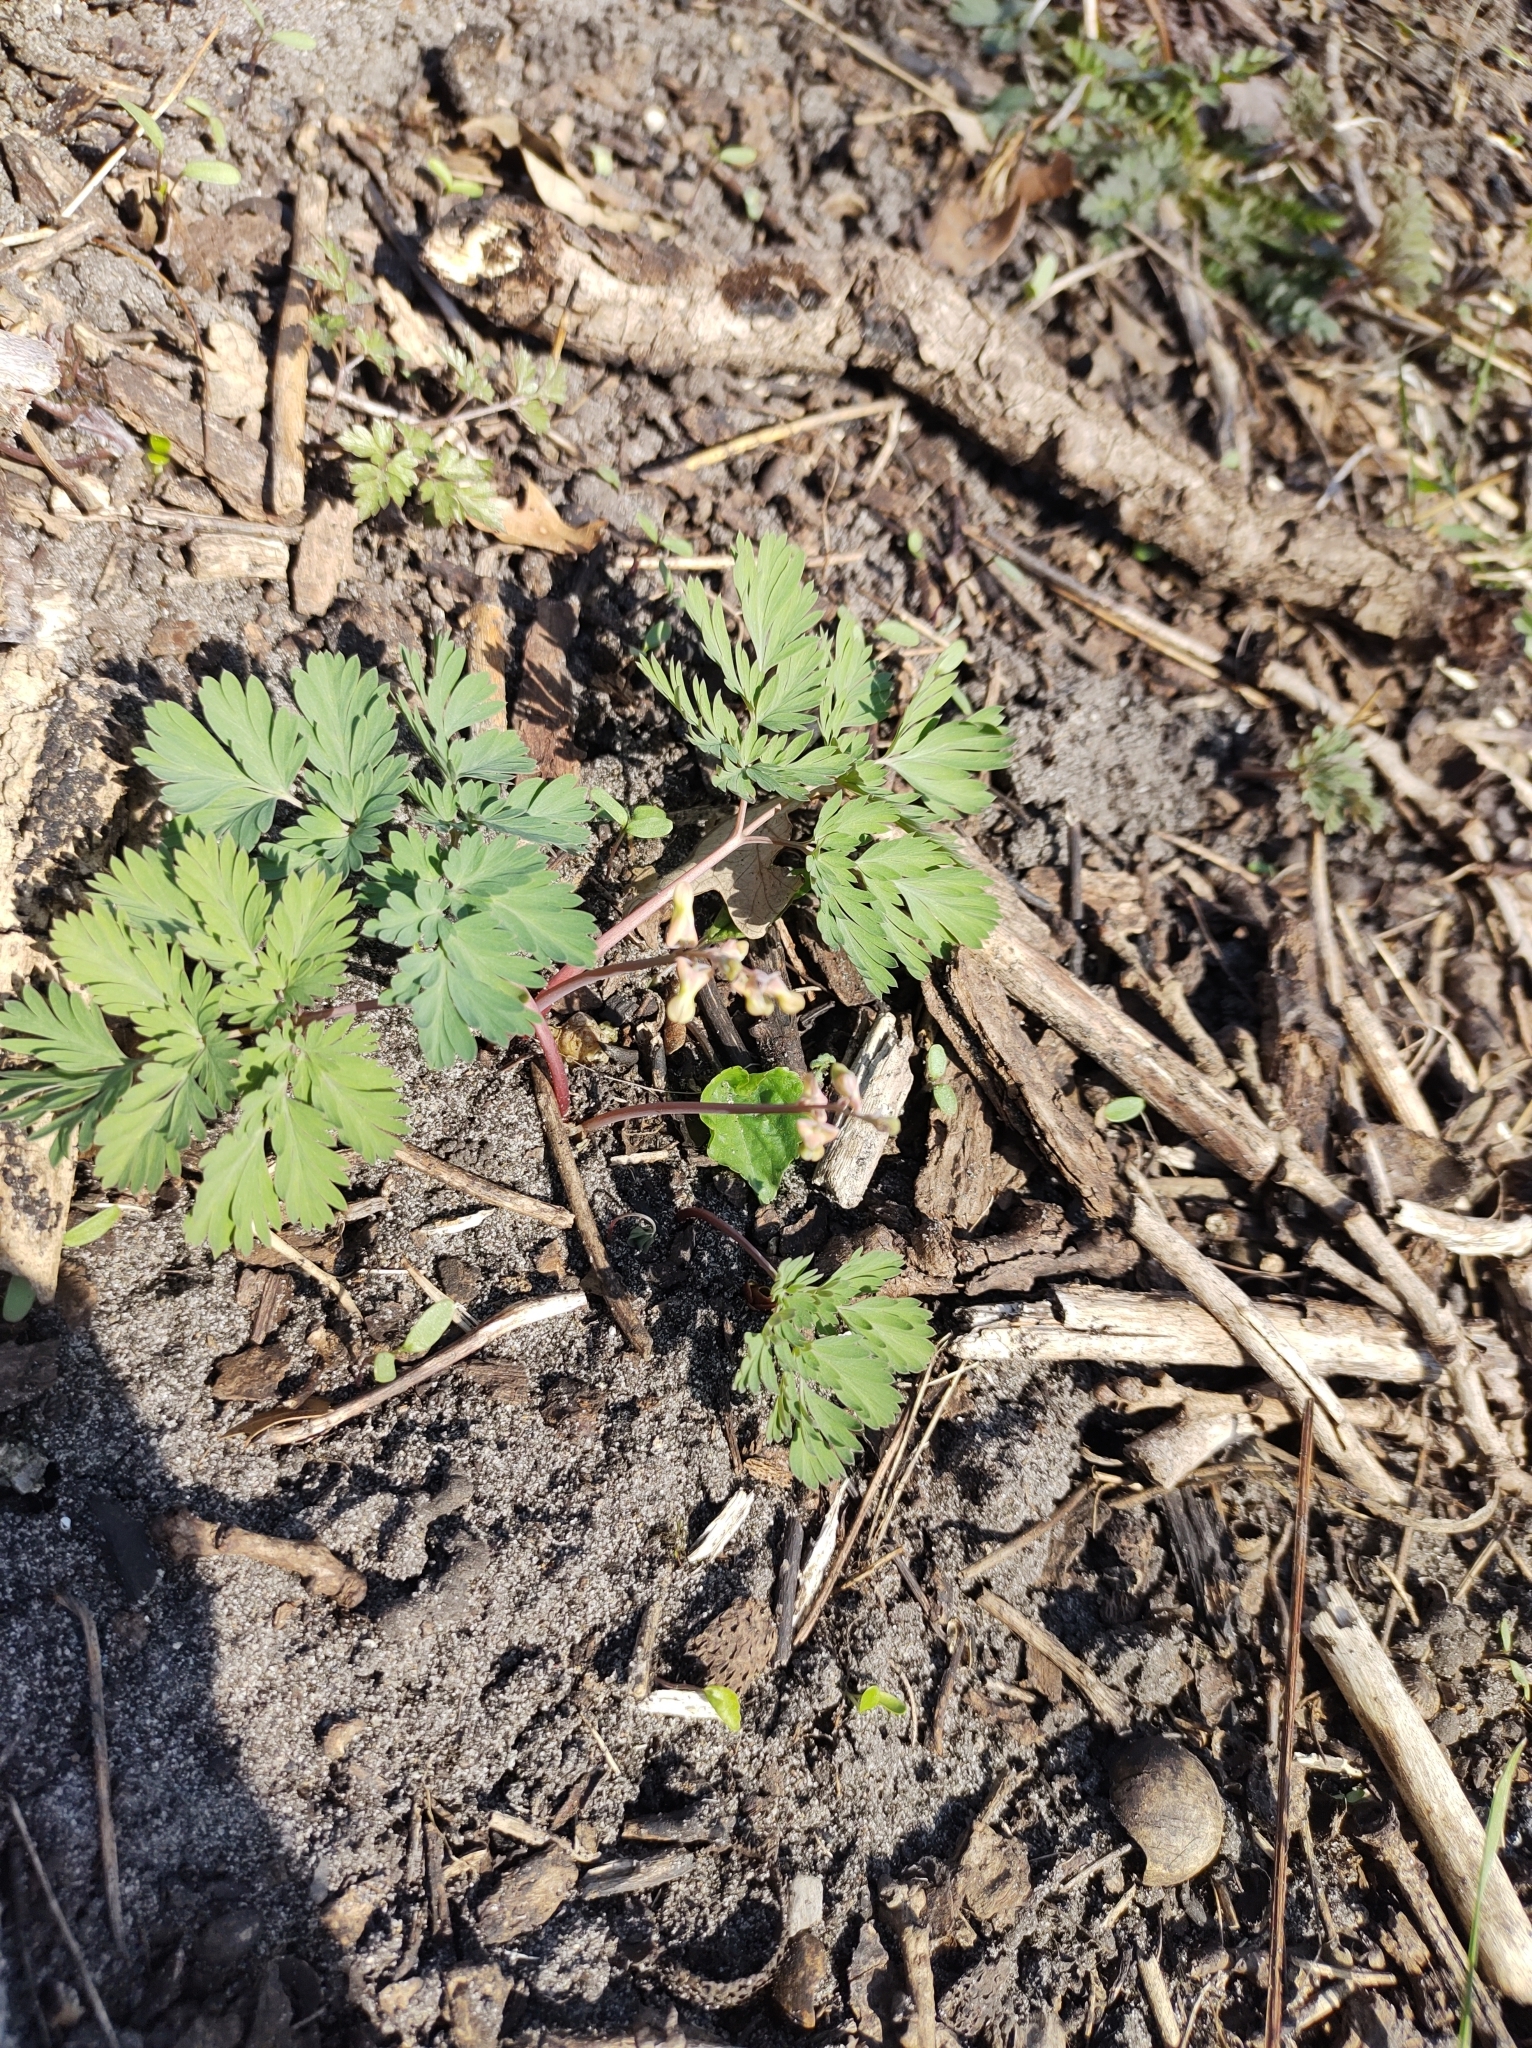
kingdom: Plantae
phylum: Tracheophyta
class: Magnoliopsida
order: Ranunculales
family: Papaveraceae
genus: Dicentra
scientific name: Dicentra cucullaria
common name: Dutchman's breeches
